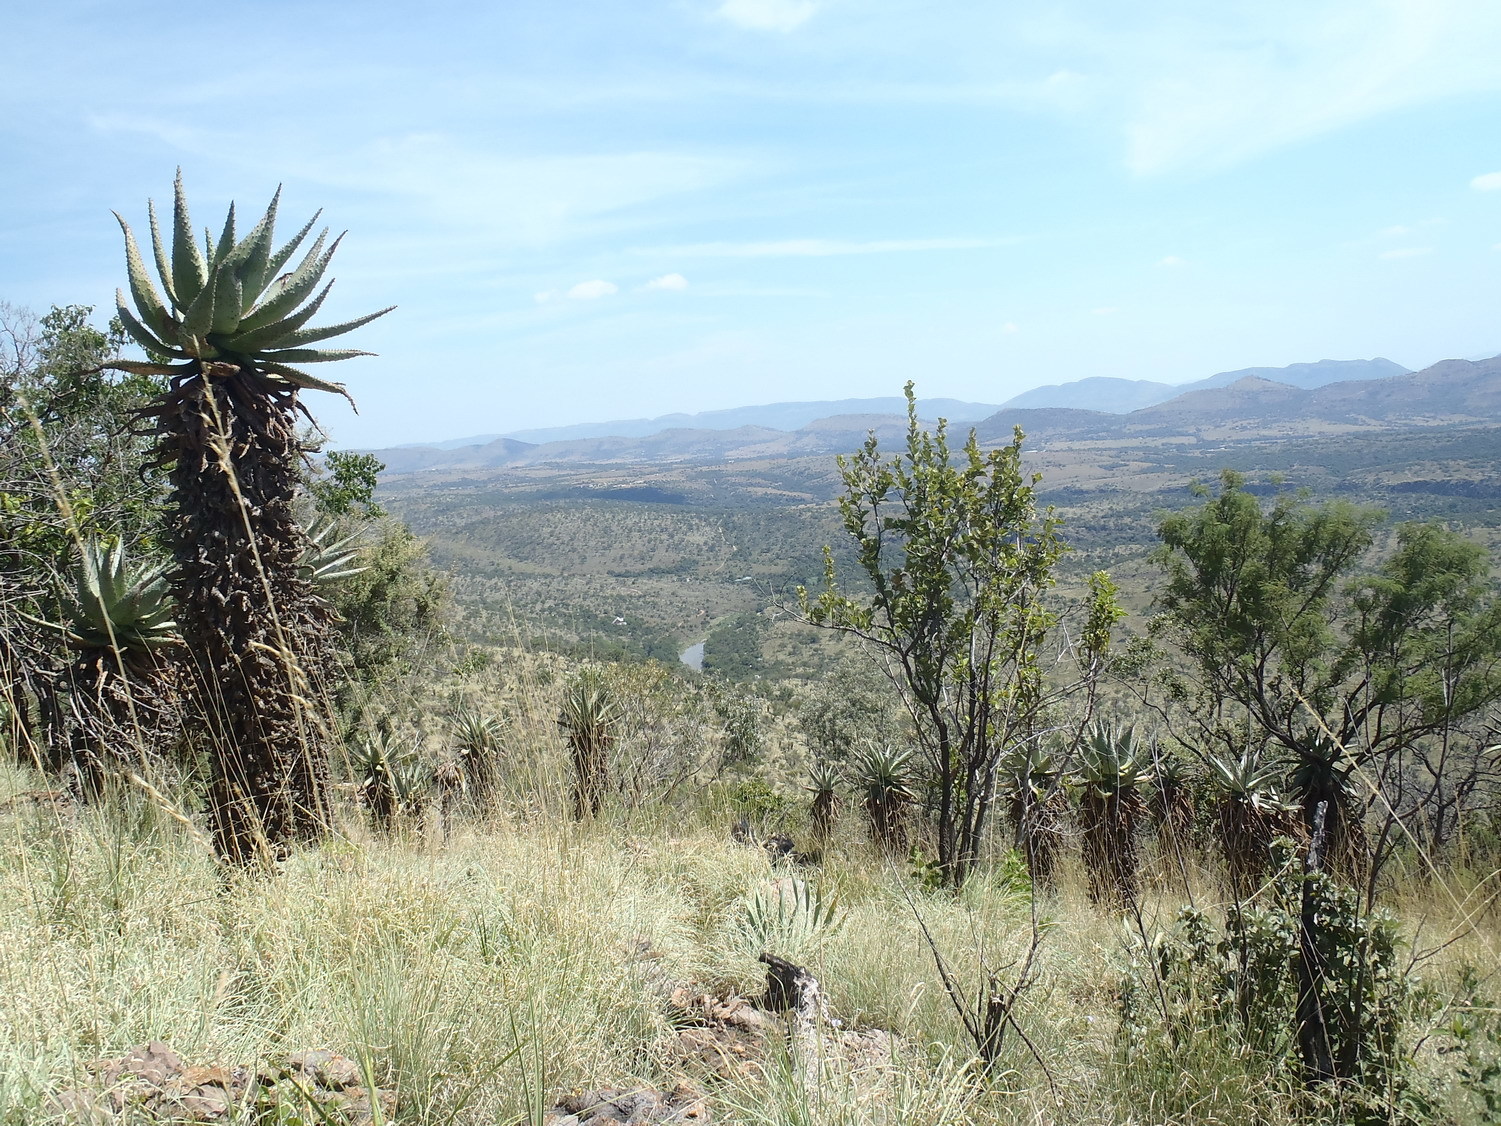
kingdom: Plantae
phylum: Tracheophyta
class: Liliopsida
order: Asparagales
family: Asphodelaceae
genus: Aloe
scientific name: Aloe marlothii
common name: Flat-flowered aloe
